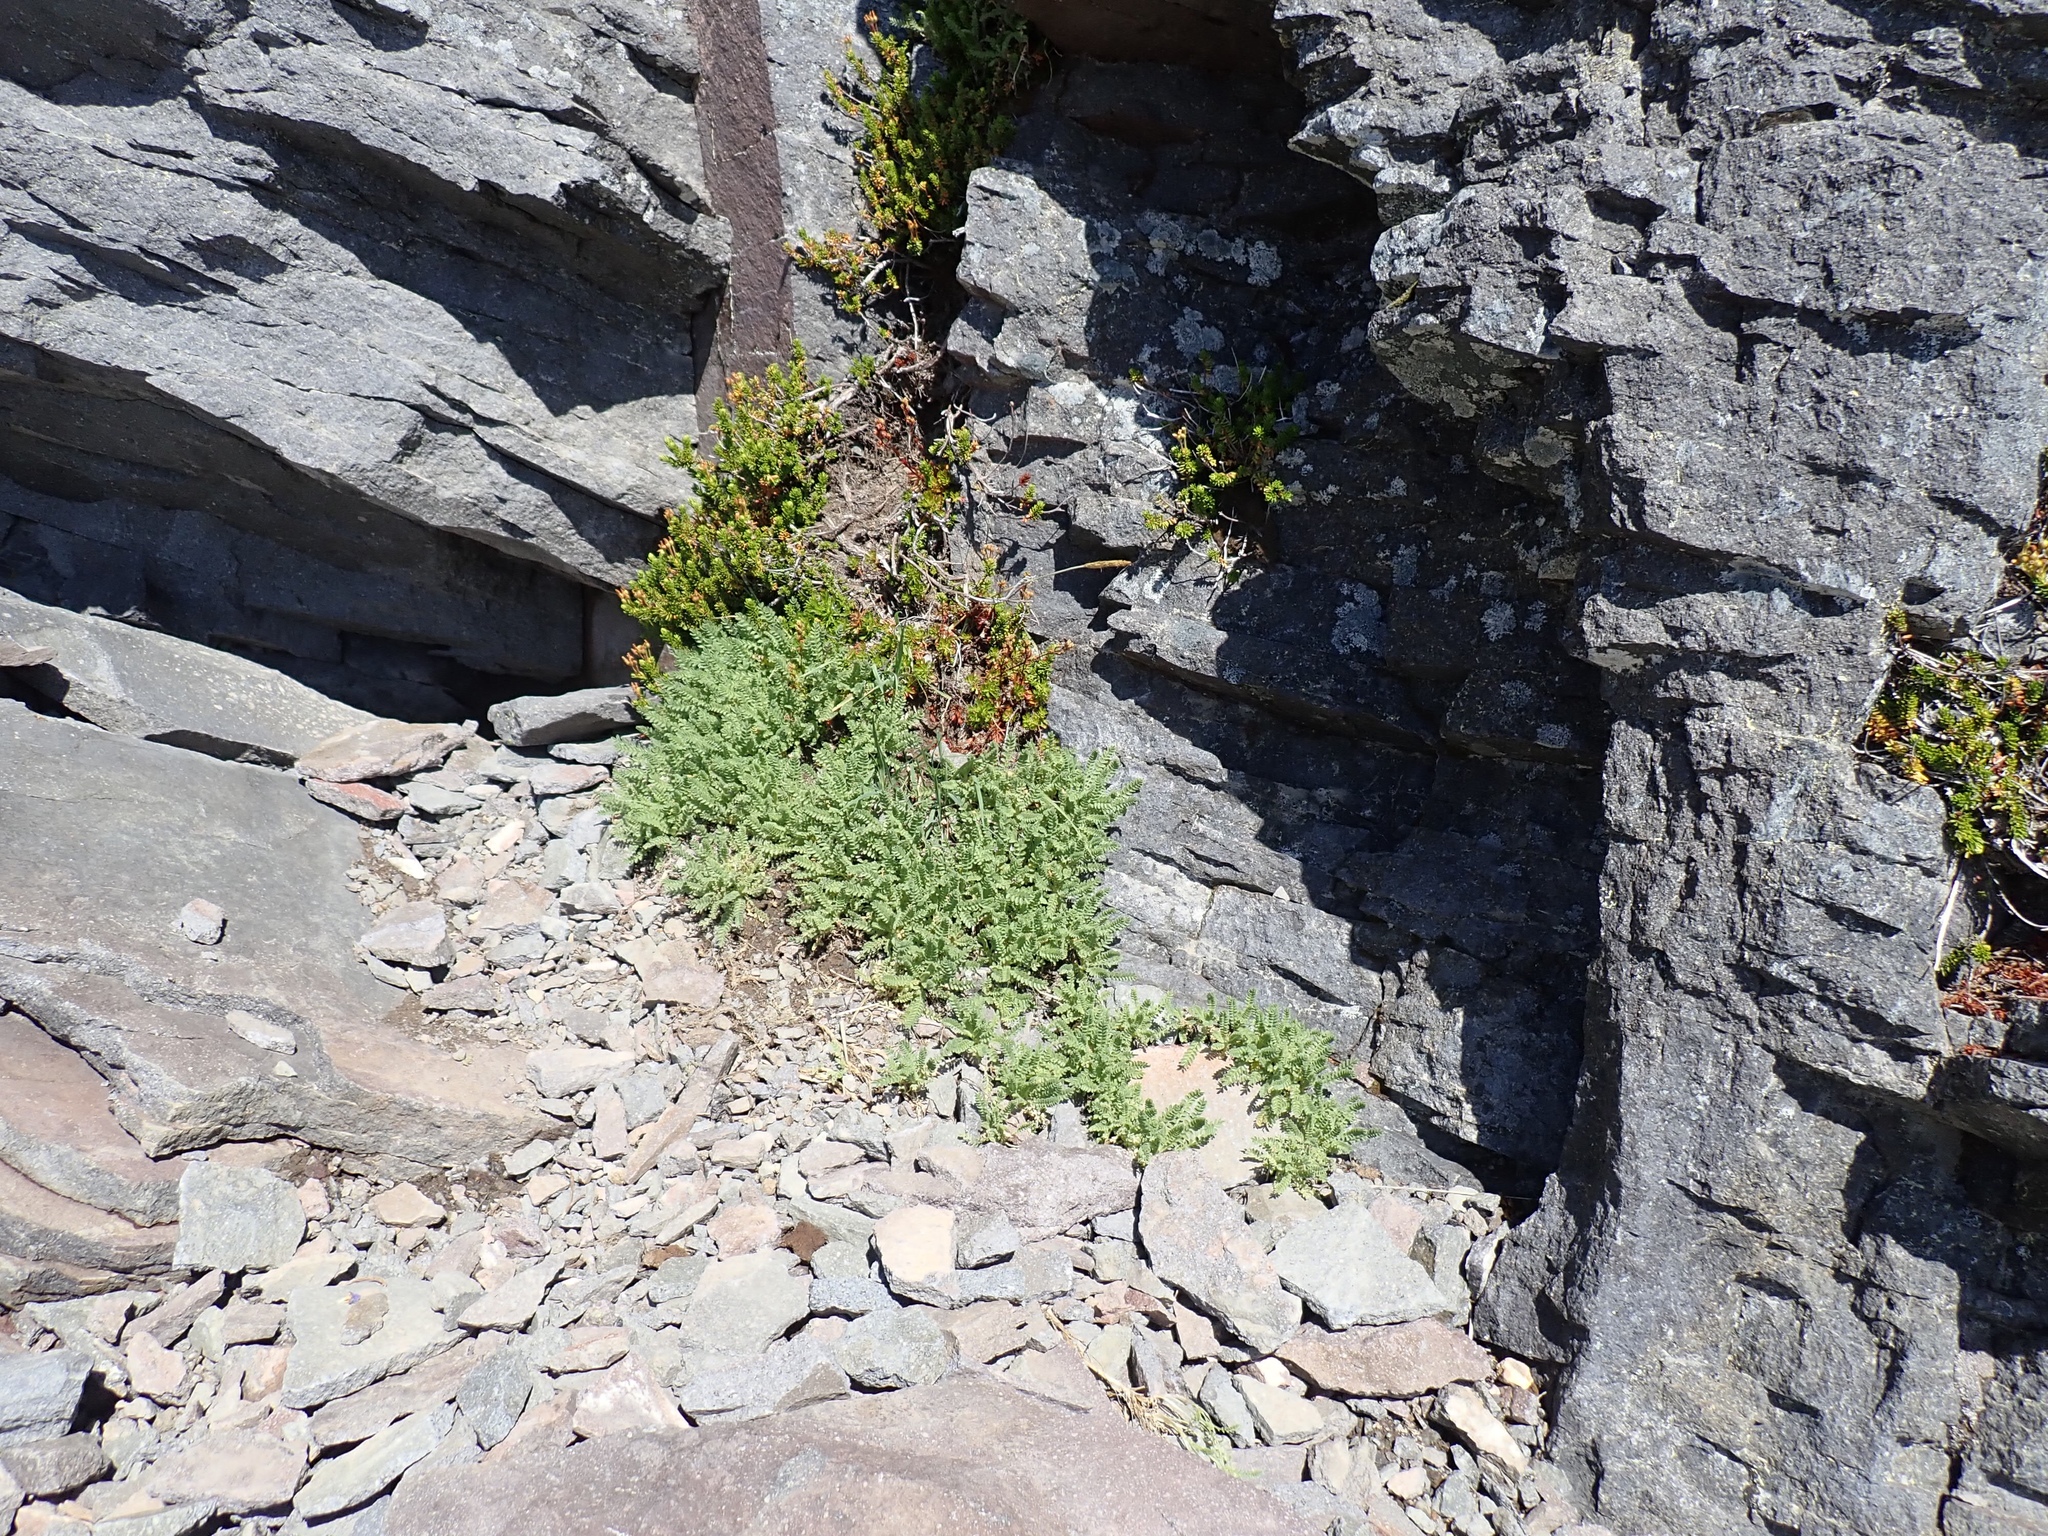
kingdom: Plantae
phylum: Tracheophyta
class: Magnoliopsida
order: Ericales
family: Polemoniaceae
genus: Polemonium
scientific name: Polemonium elegans
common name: Elegant jacob's-ladder
